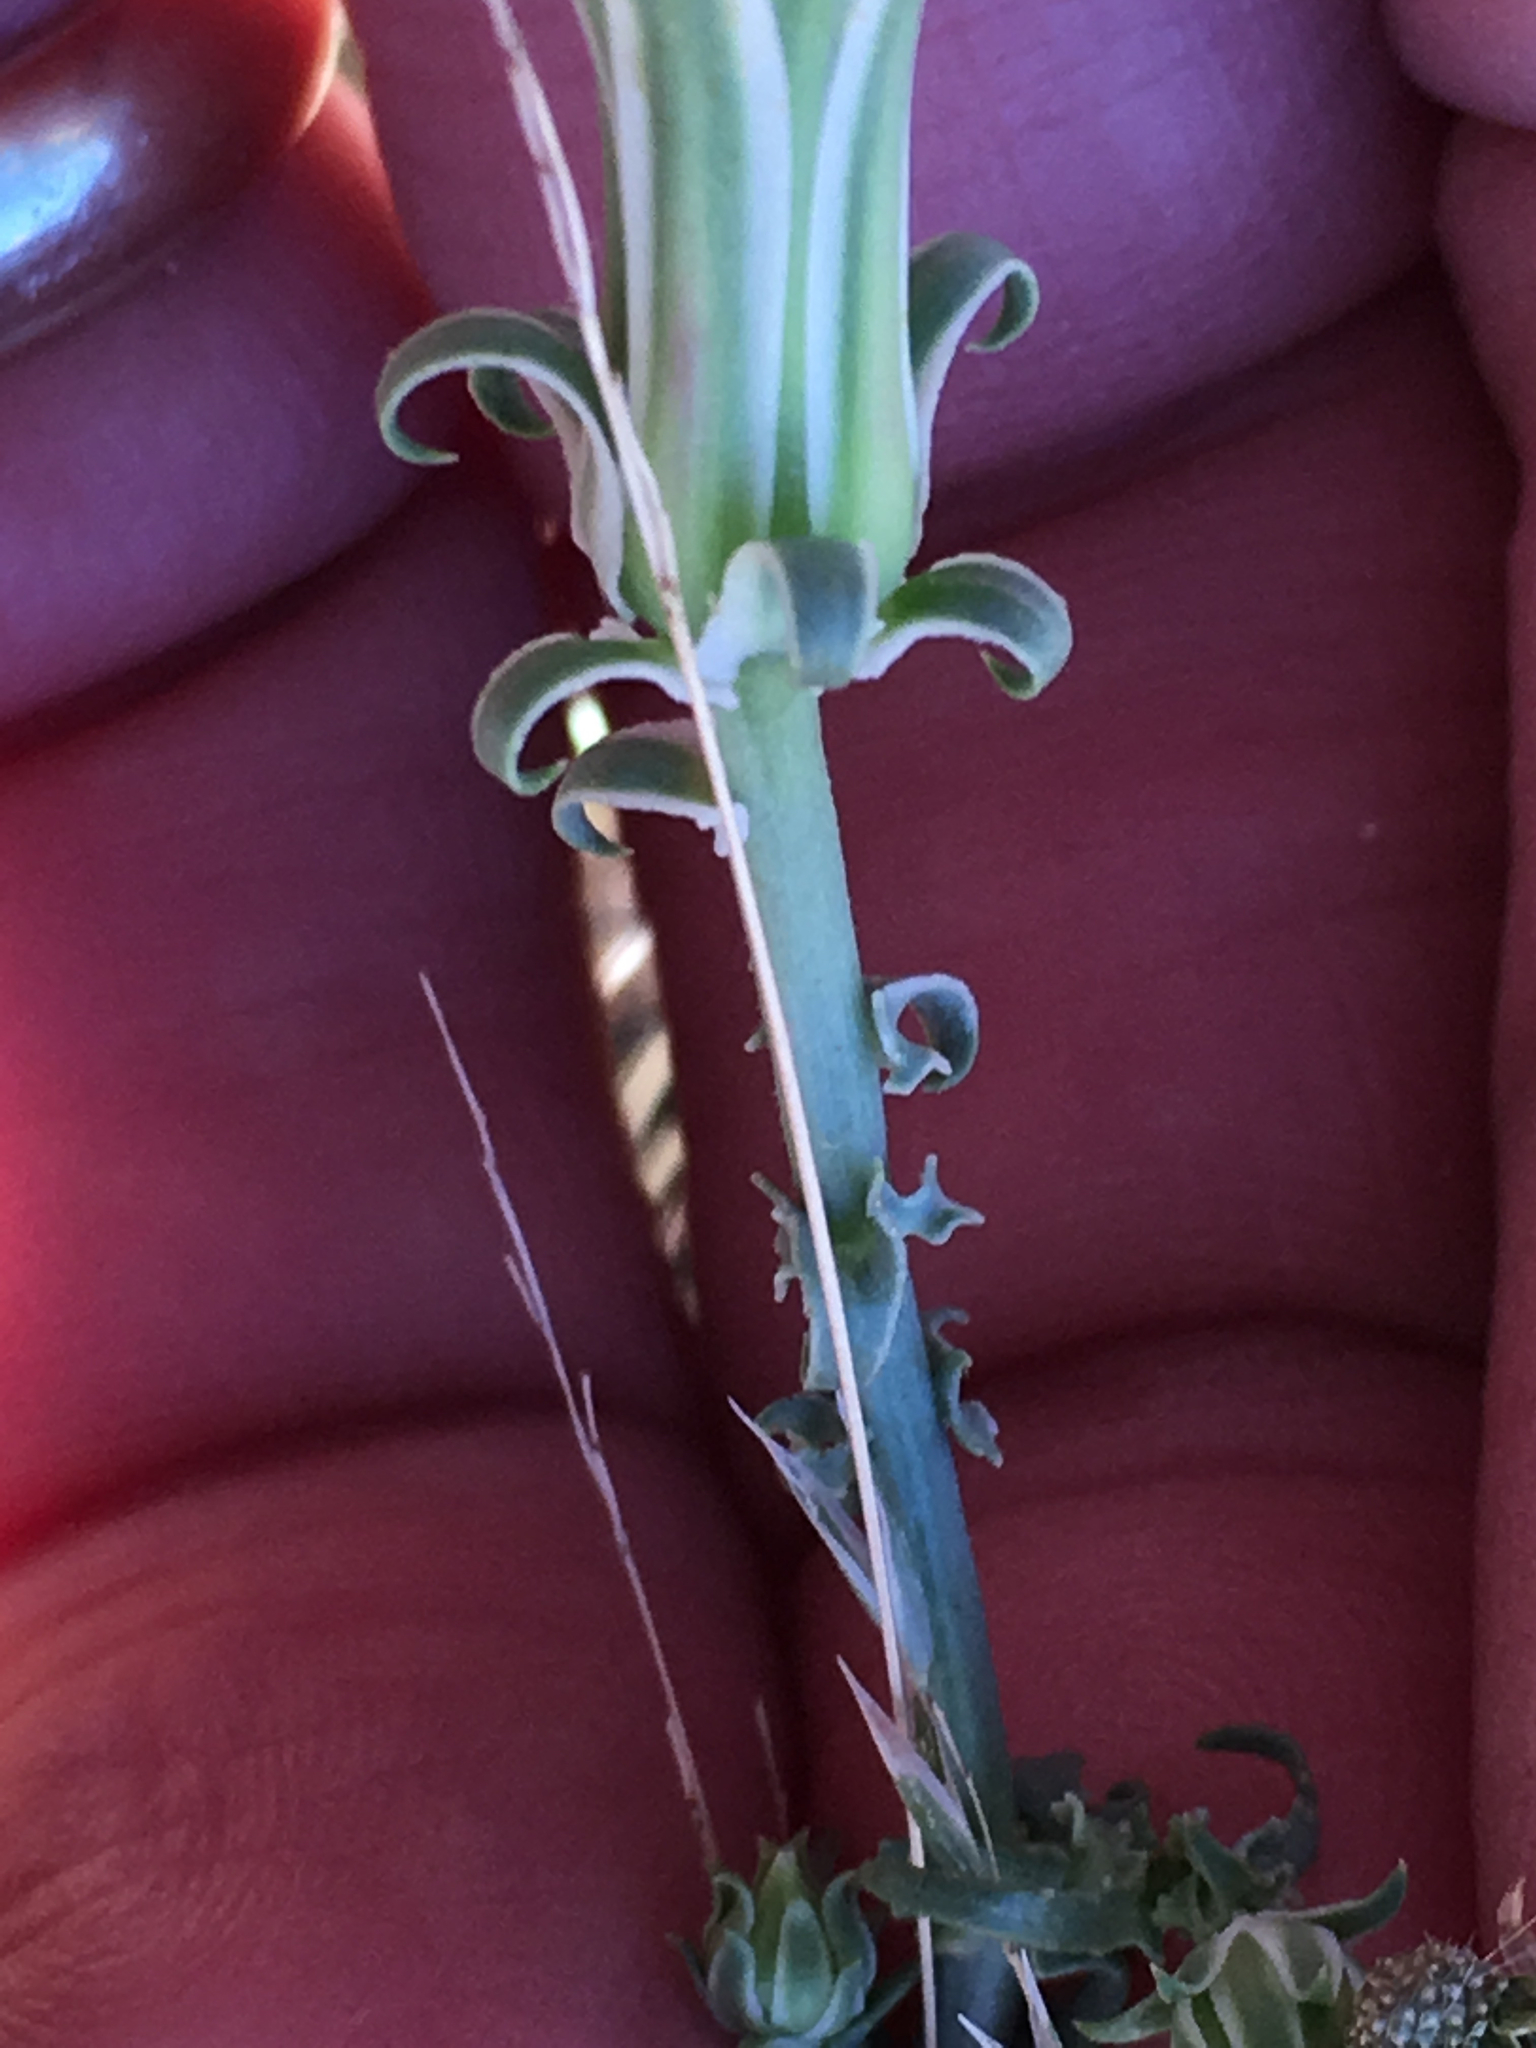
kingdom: Plantae
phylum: Tracheophyta
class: Magnoliopsida
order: Asterales
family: Asteraceae
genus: Rafinesquia
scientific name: Rafinesquia neomexicana
